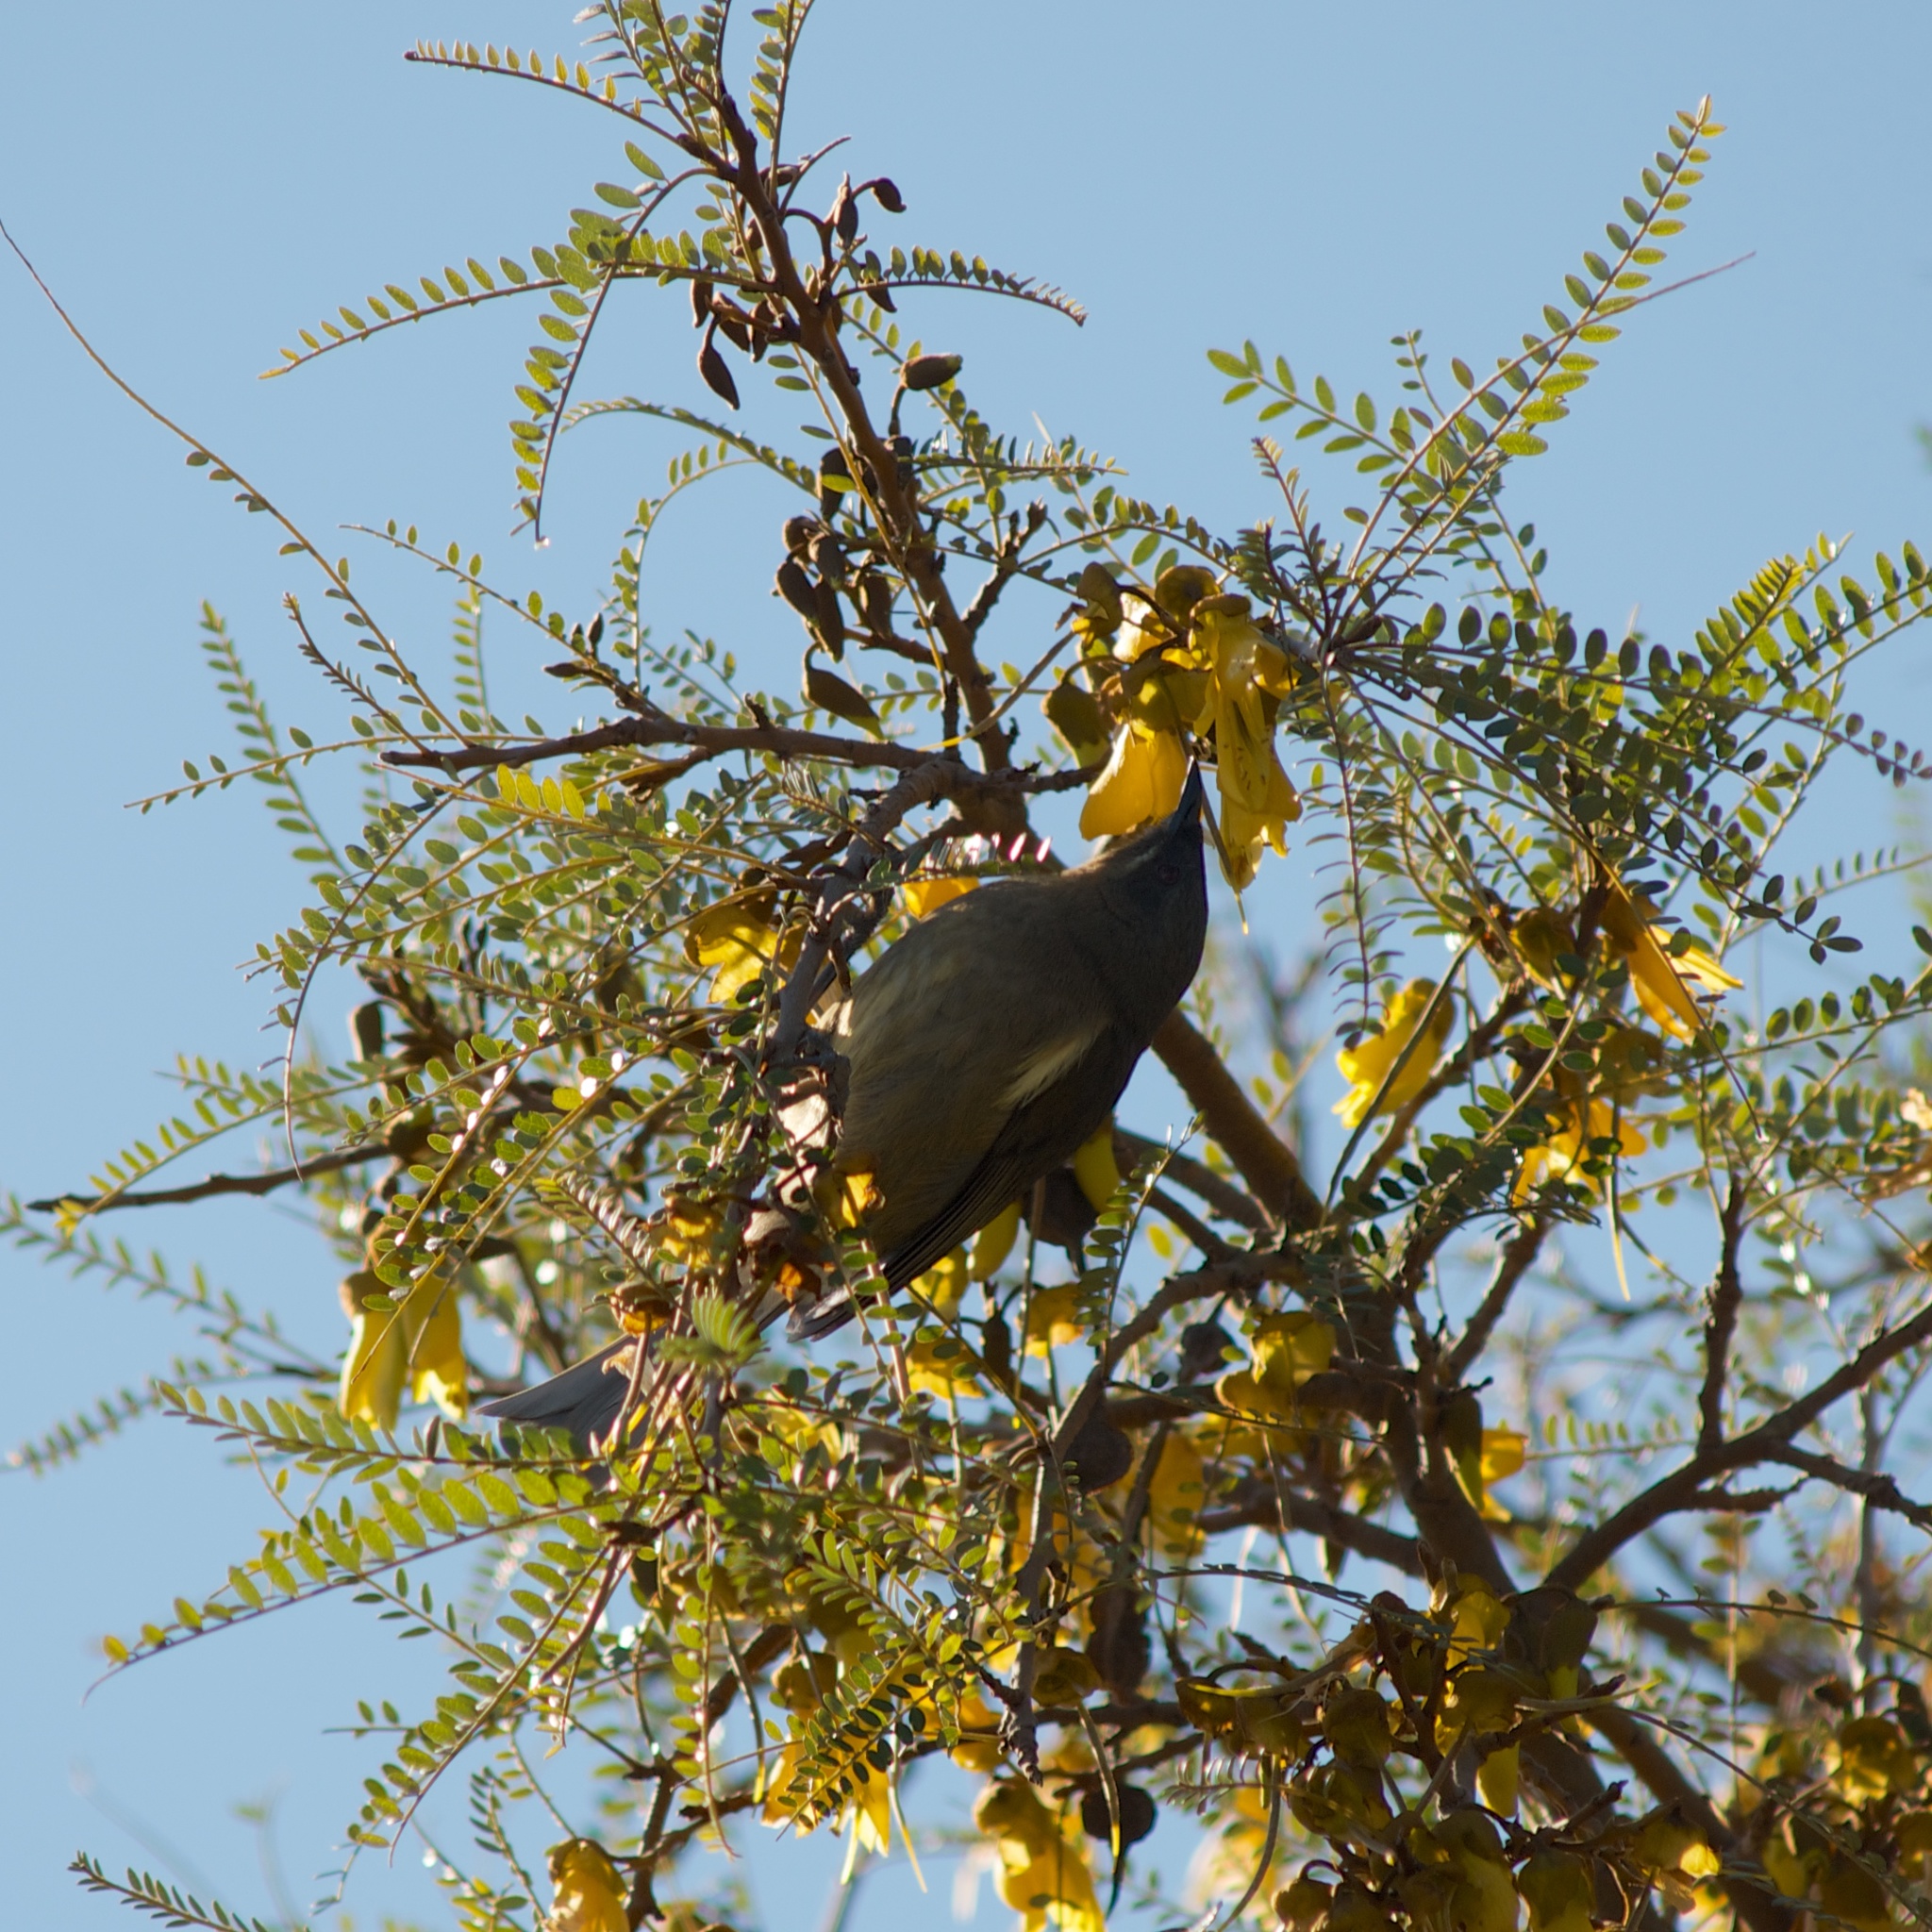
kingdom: Animalia
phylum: Chordata
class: Aves
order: Passeriformes
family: Meliphagidae
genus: Anthornis
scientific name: Anthornis melanura
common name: New zealand bellbird
